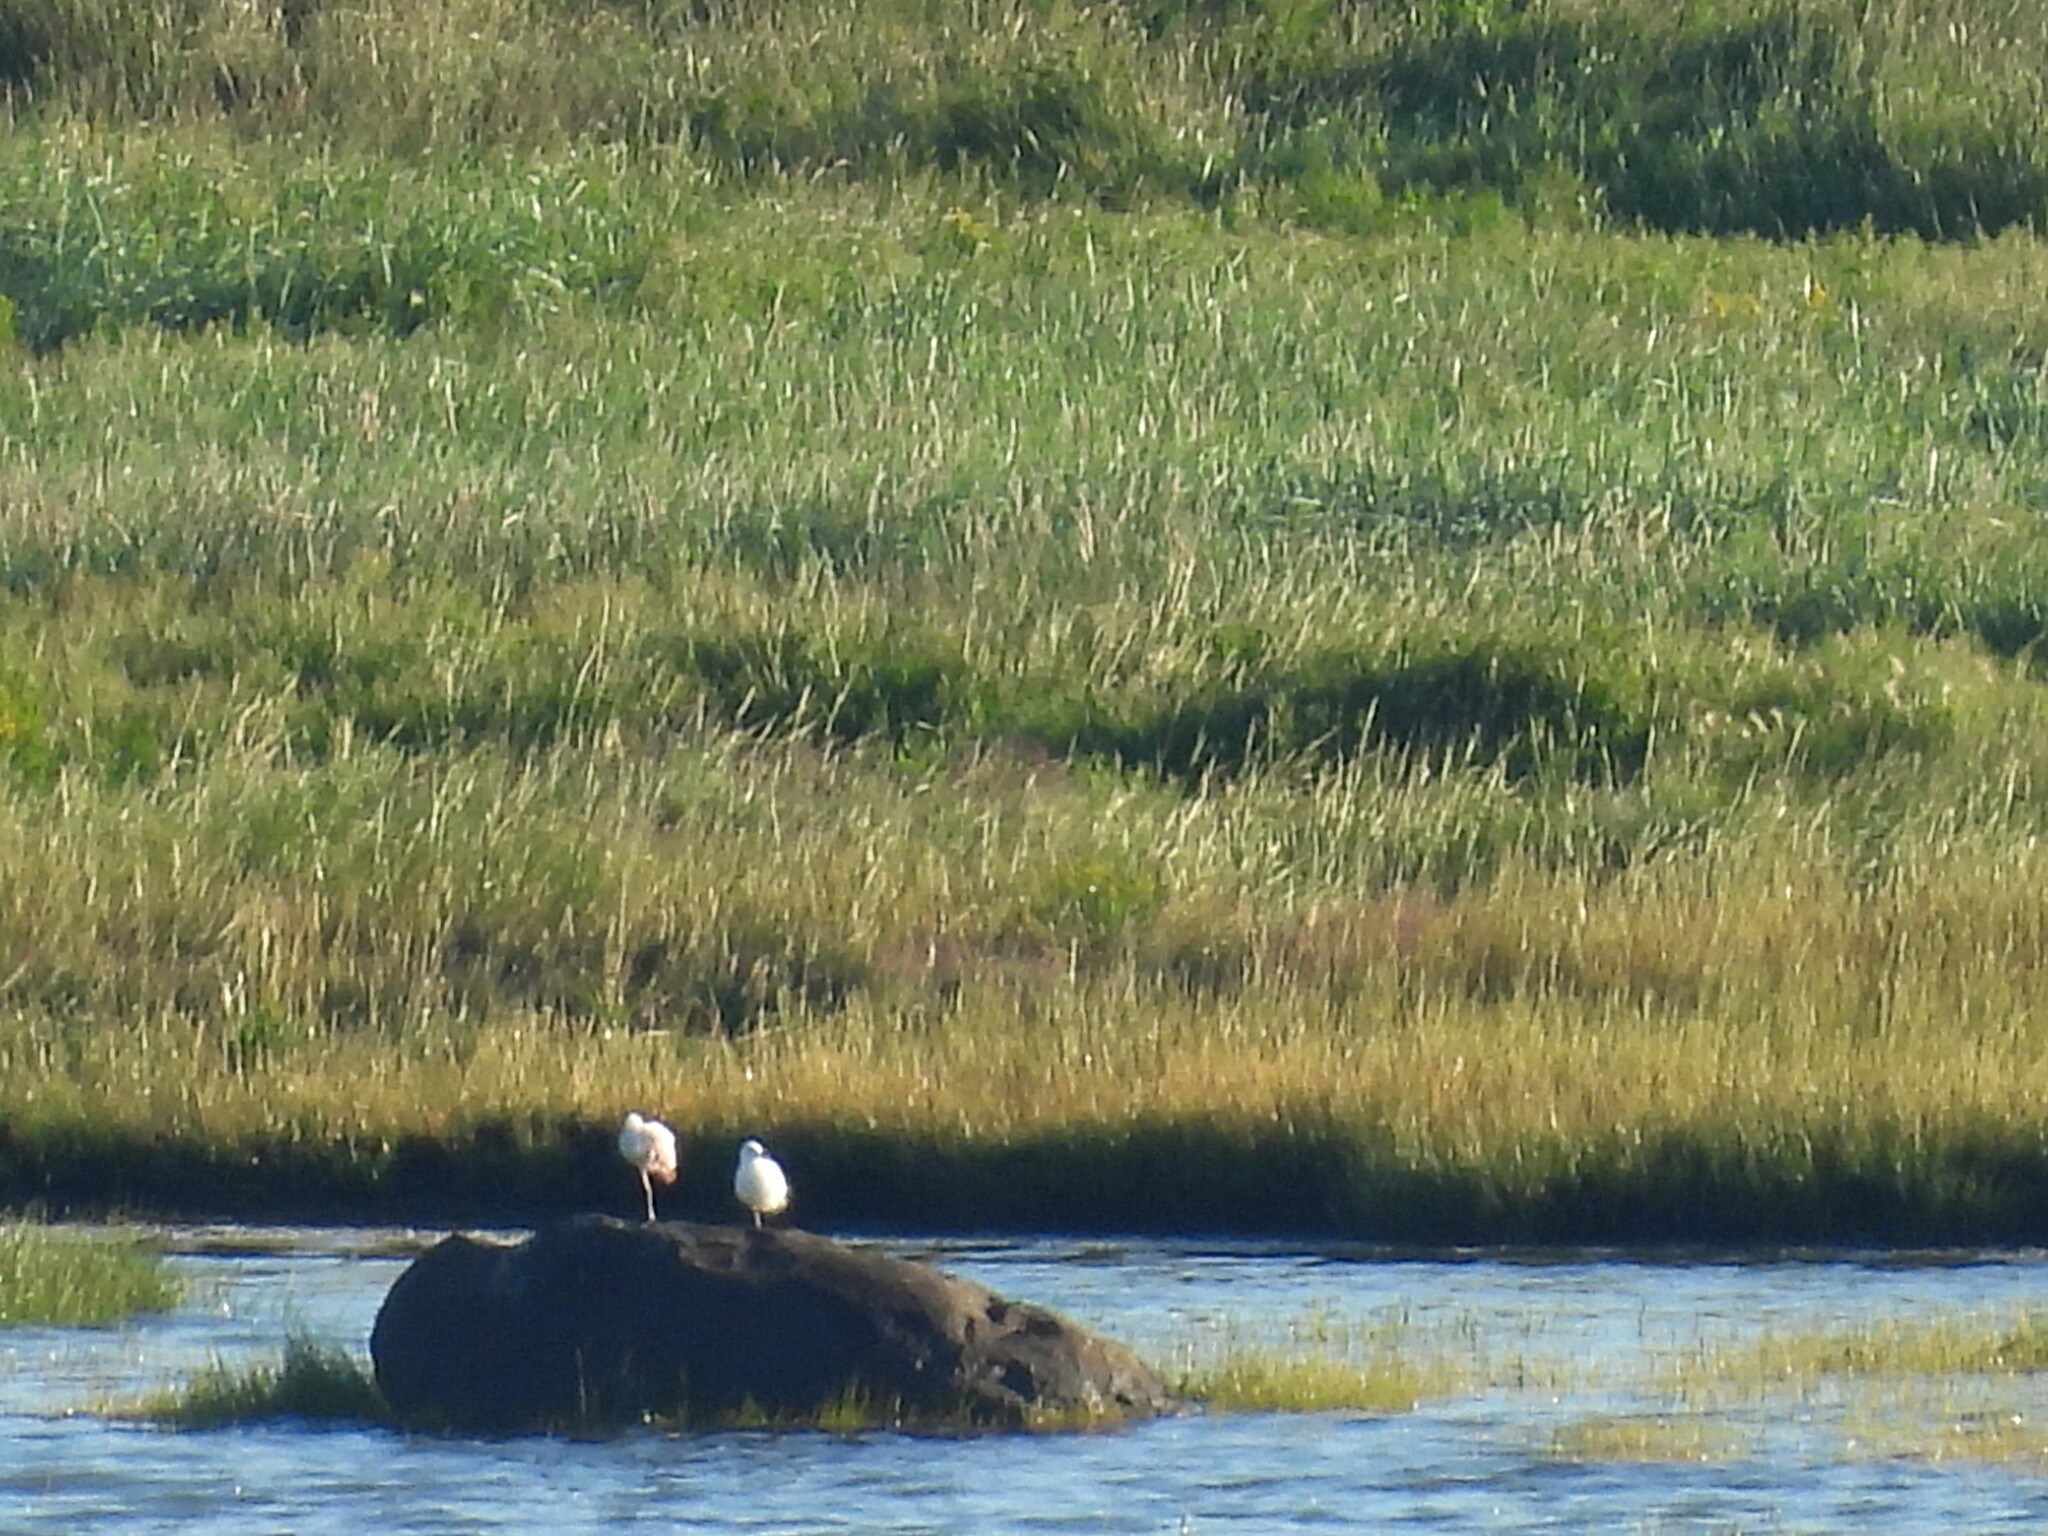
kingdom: Animalia
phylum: Chordata
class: Aves
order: Pelecaniformes
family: Threskiornithidae
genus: Platalea
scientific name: Platalea ajaja
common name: Roseate spoonbill
